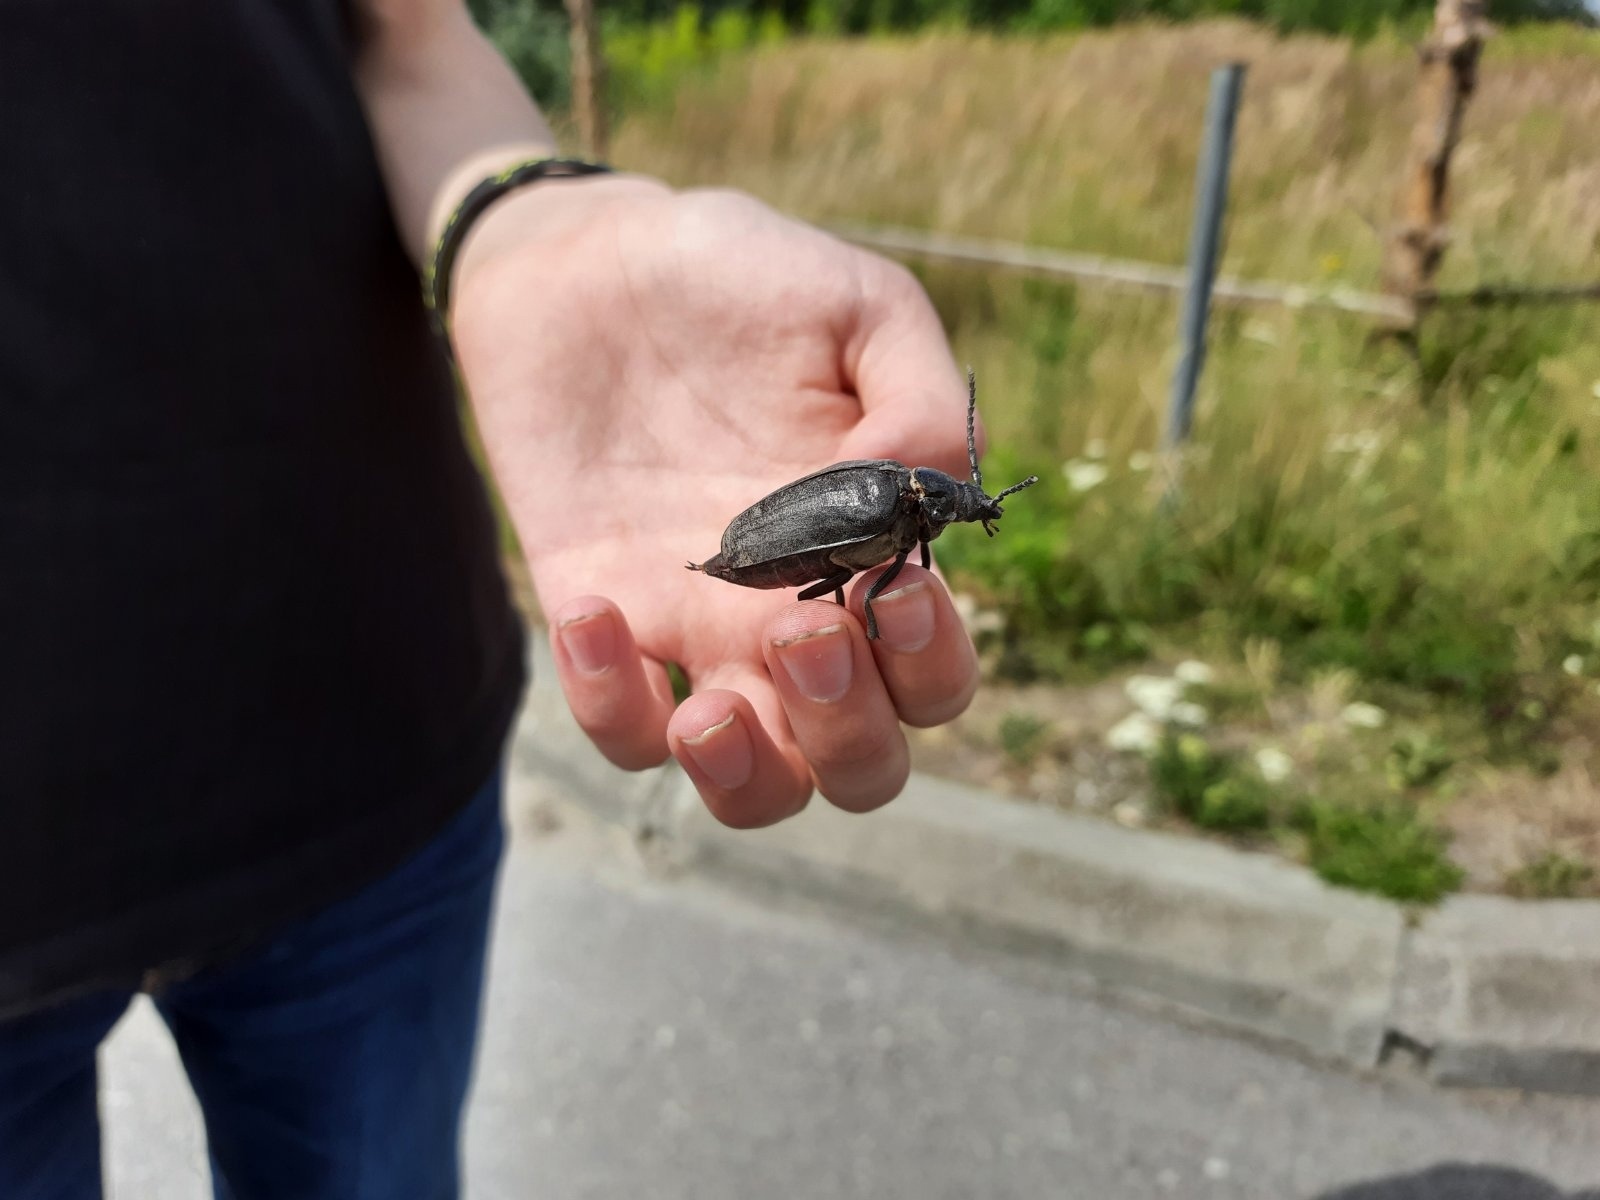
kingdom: Animalia
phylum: Arthropoda
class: Insecta
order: Coleoptera
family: Cerambycidae
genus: Prionus
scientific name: Prionus coriarius
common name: Tanner beetle
